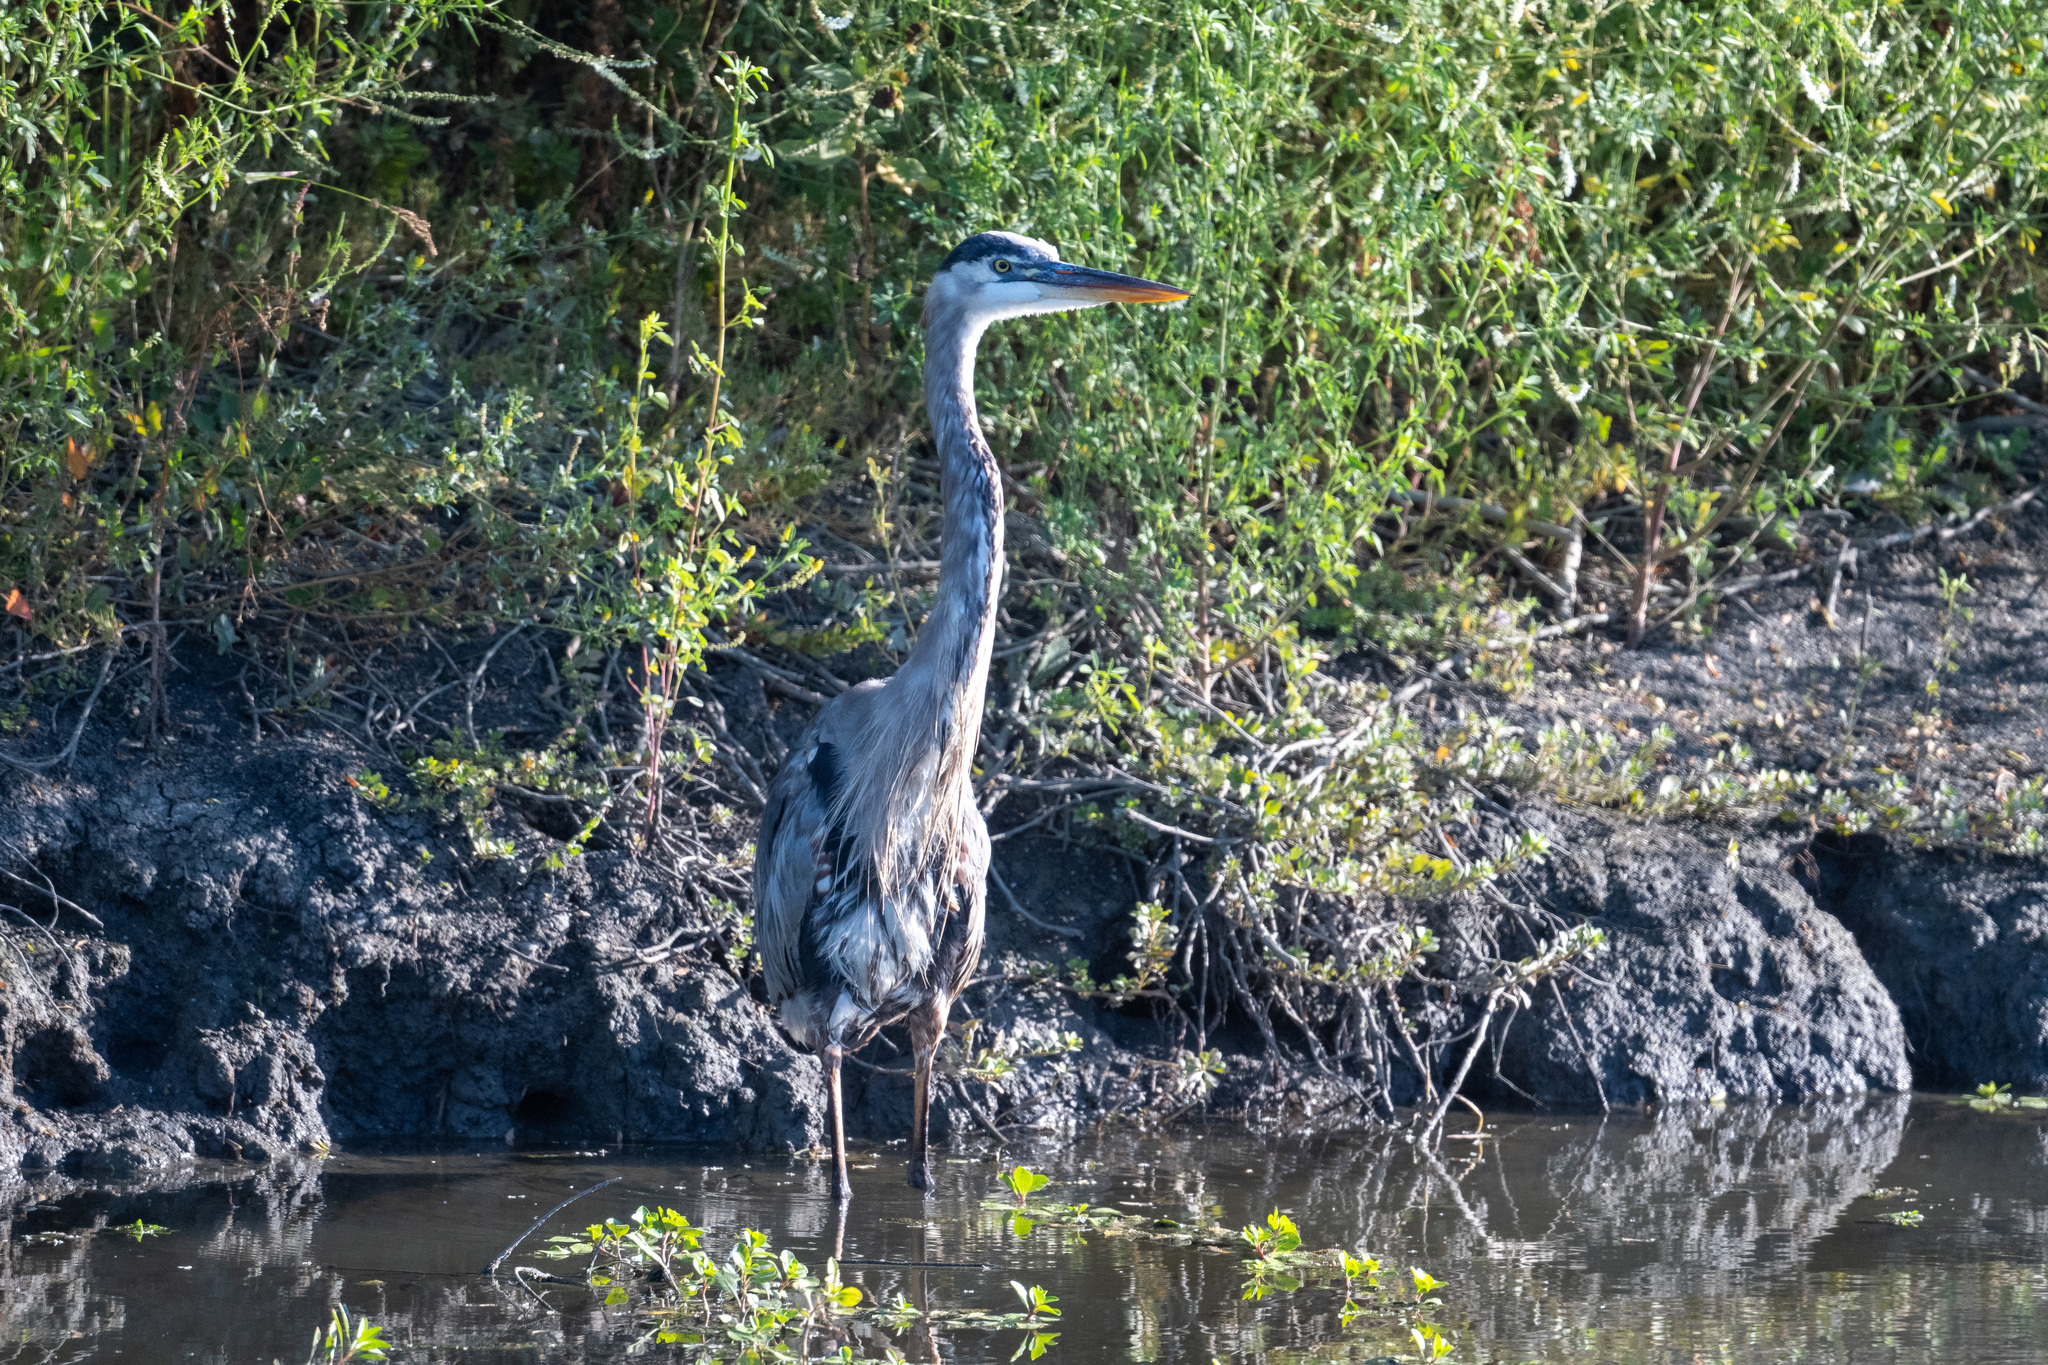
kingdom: Animalia
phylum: Chordata
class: Aves
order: Pelecaniformes
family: Ardeidae
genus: Ardea
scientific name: Ardea herodias
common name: Great blue heron
